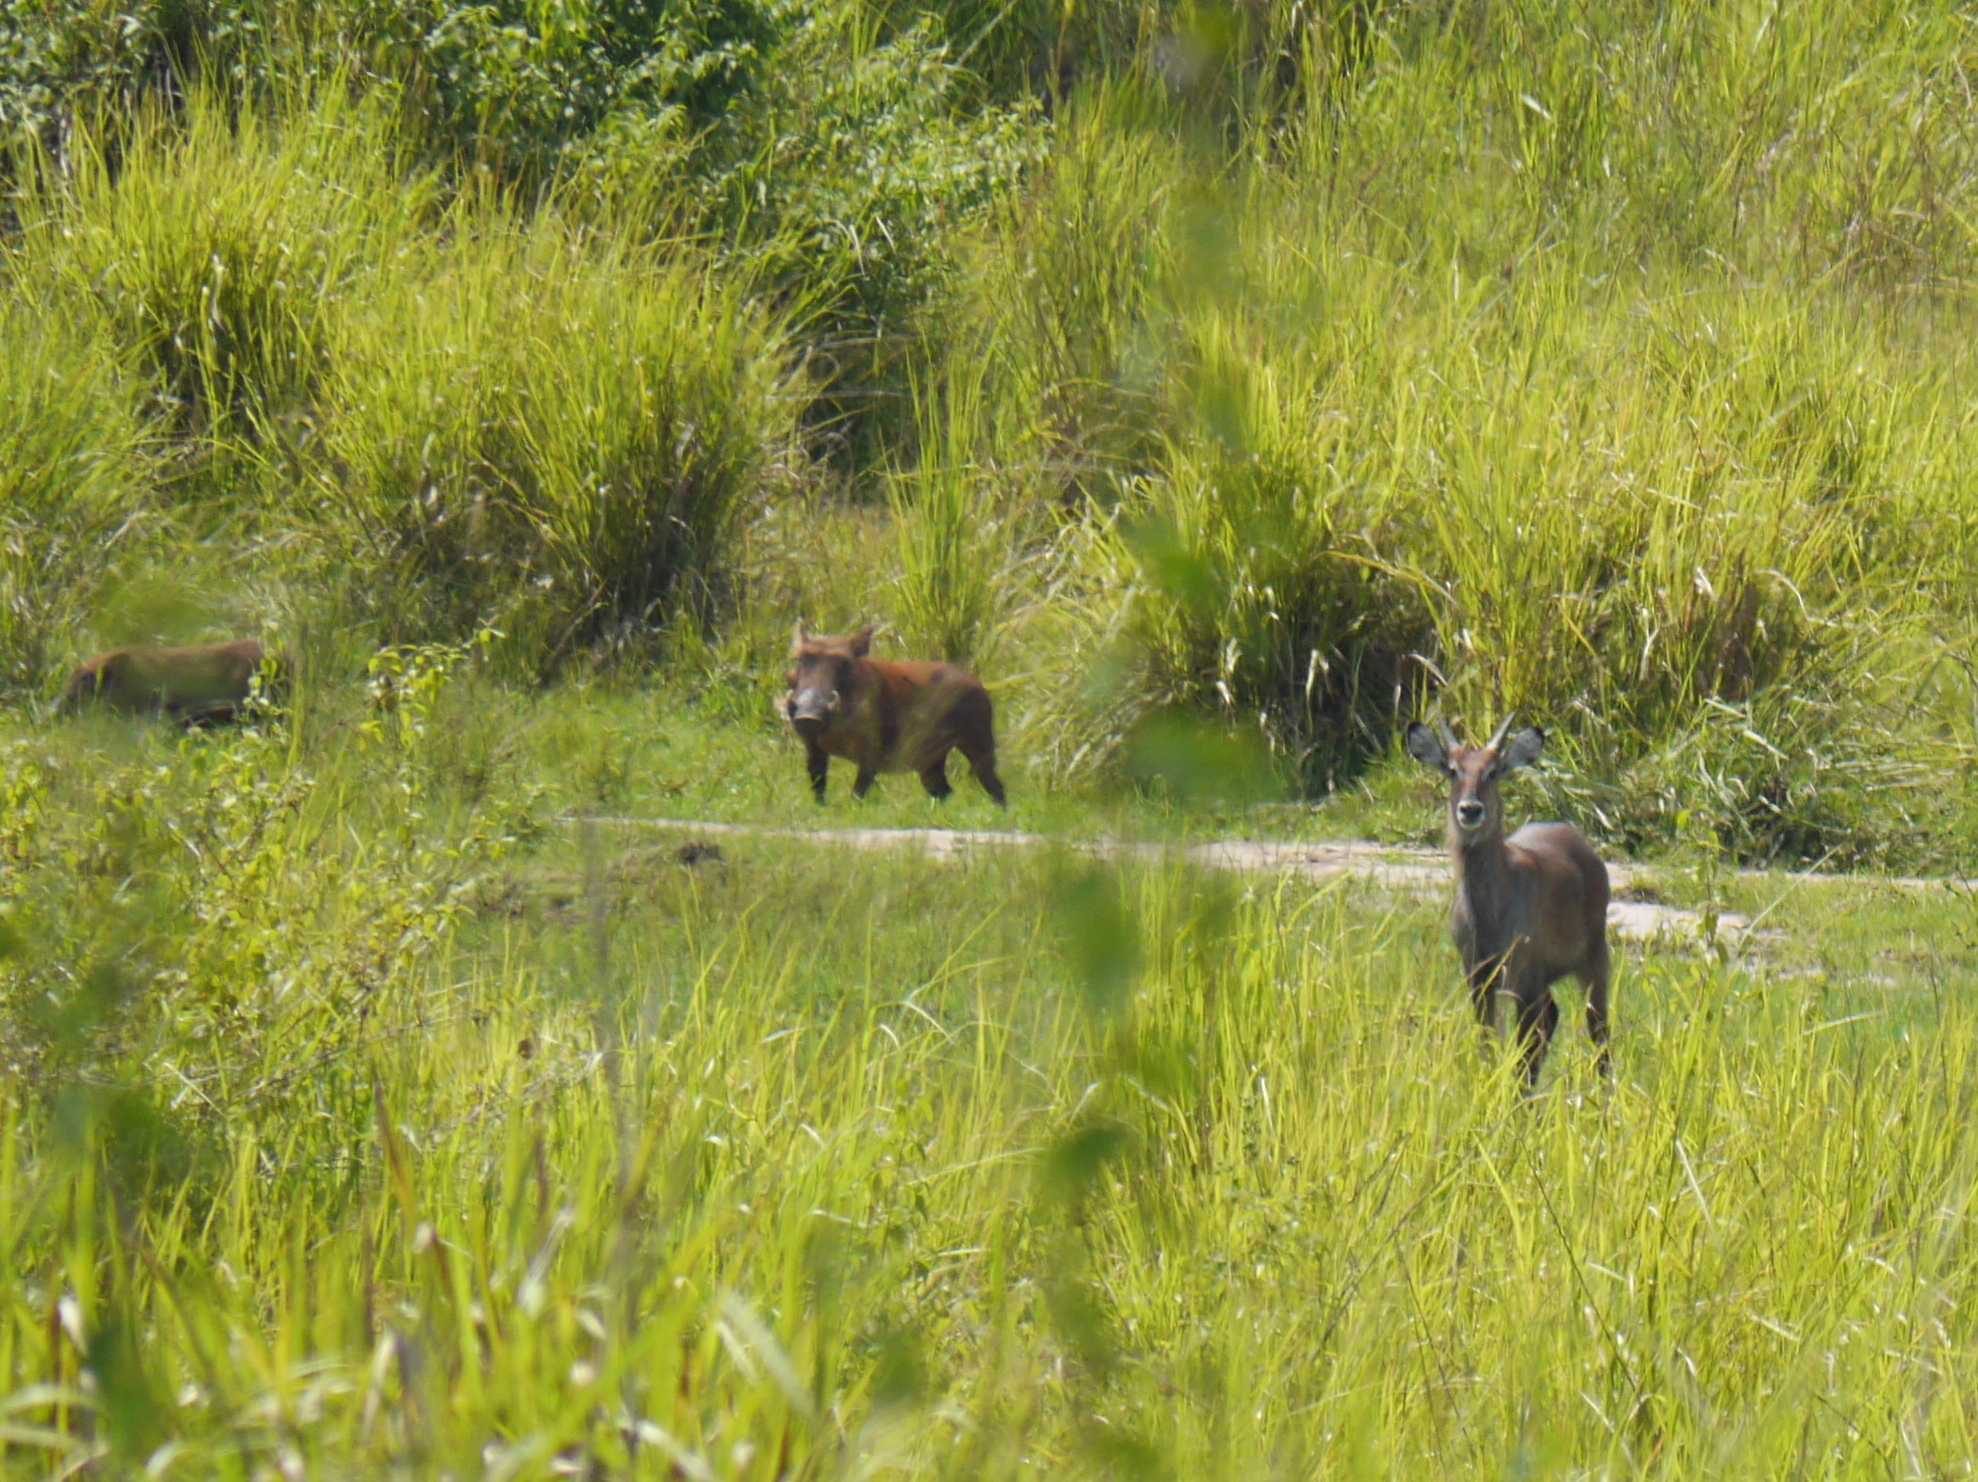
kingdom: Animalia
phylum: Chordata
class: Mammalia
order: Artiodactyla
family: Bovidae
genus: Kobus
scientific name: Kobus ellipsiprymnus
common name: Waterbuck
